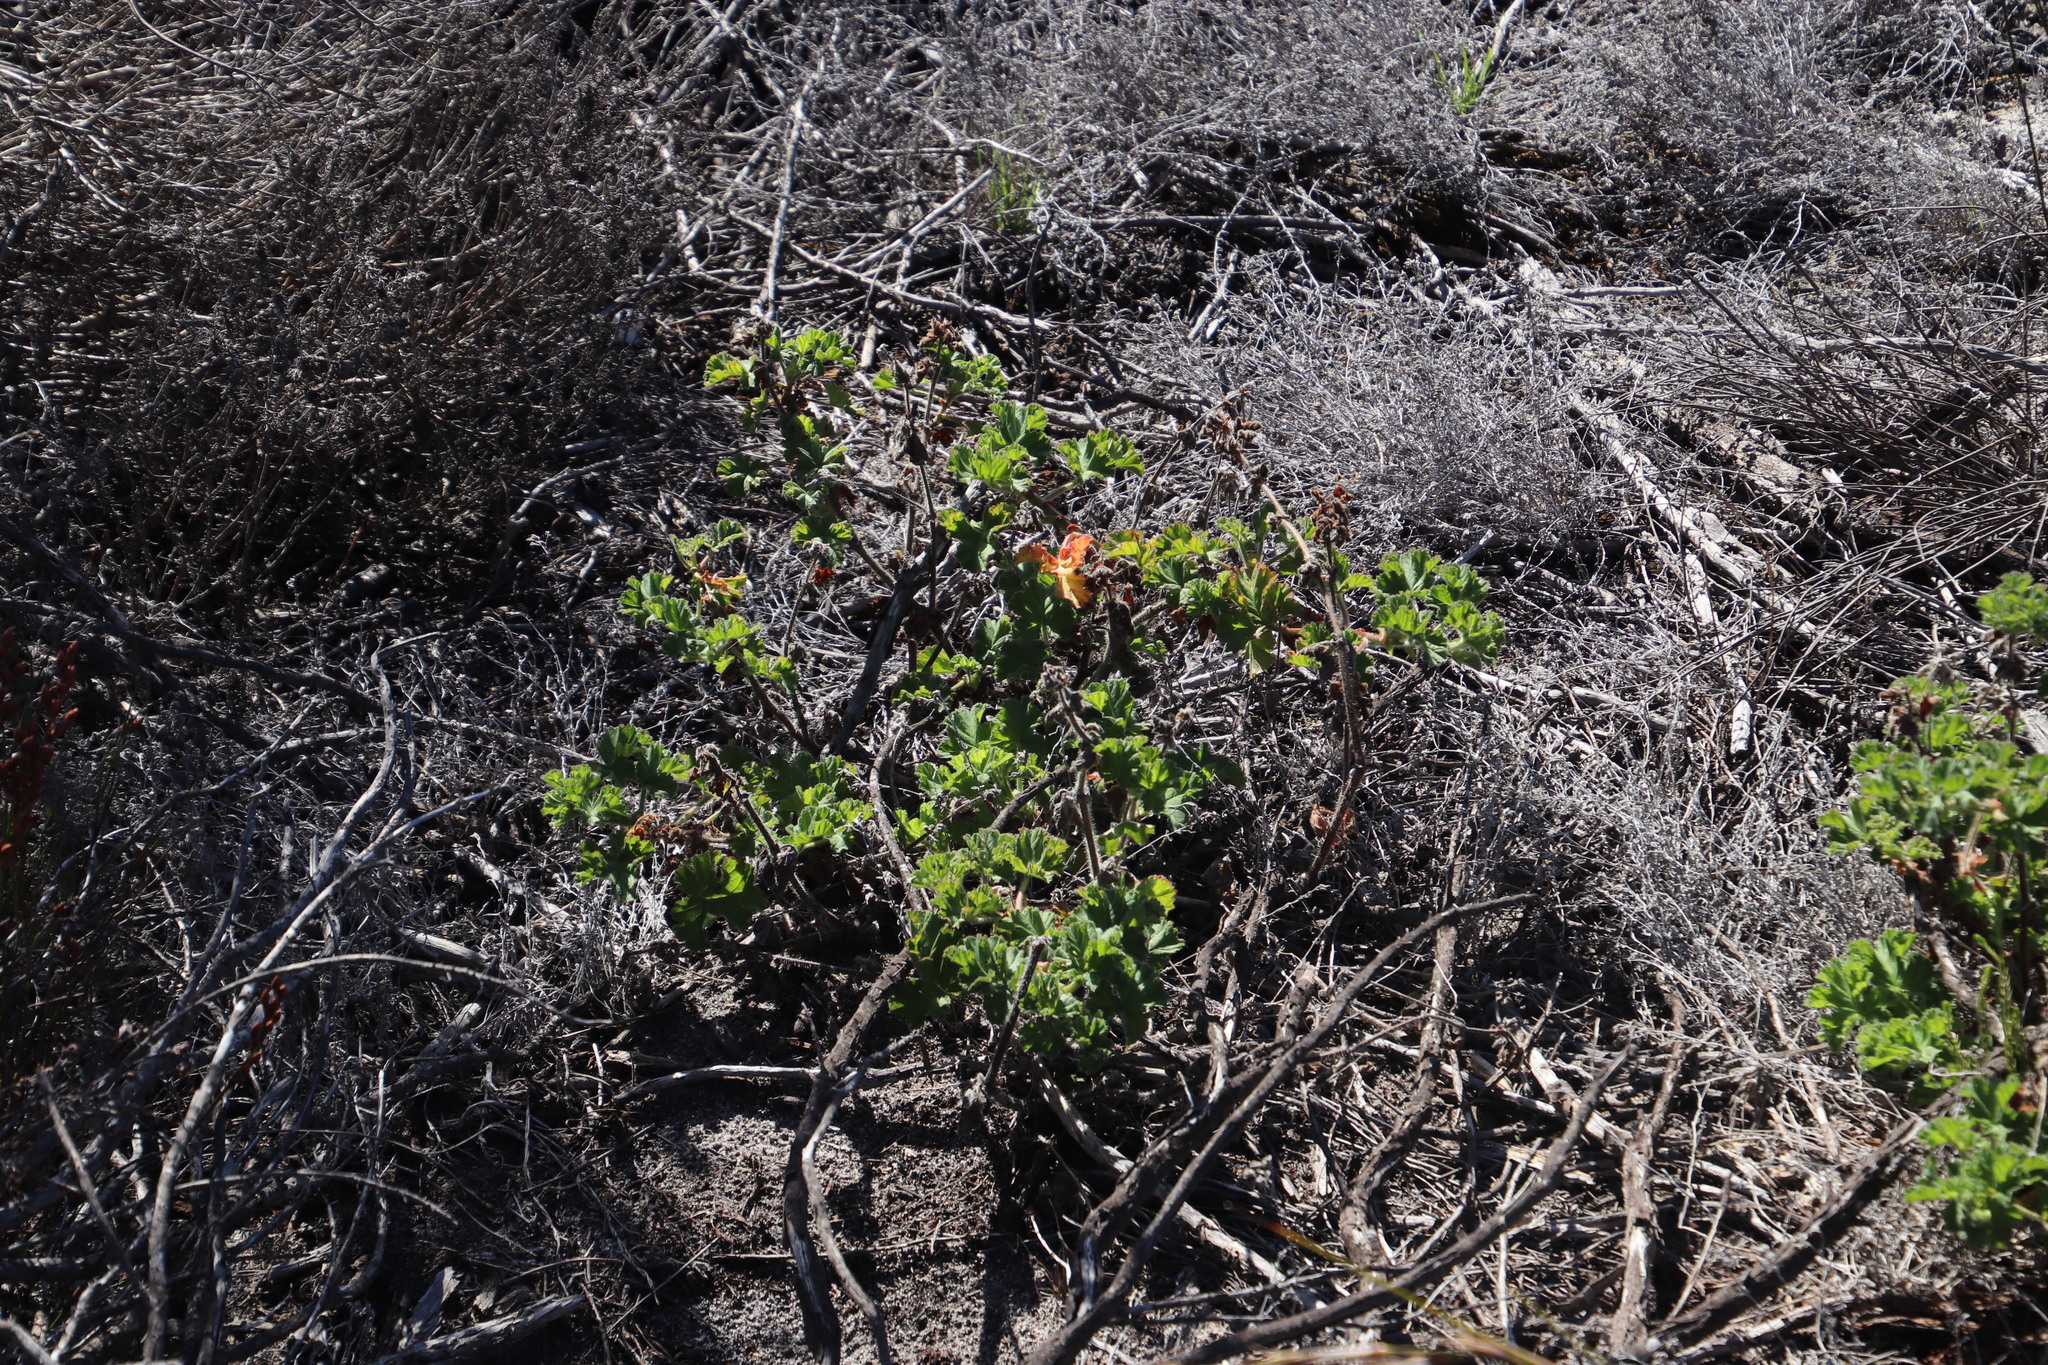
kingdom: Plantae
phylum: Tracheophyta
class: Magnoliopsida
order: Geraniales
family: Geraniaceae
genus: Pelargonium
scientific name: Pelargonium capitatum
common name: Rose scented geranium
